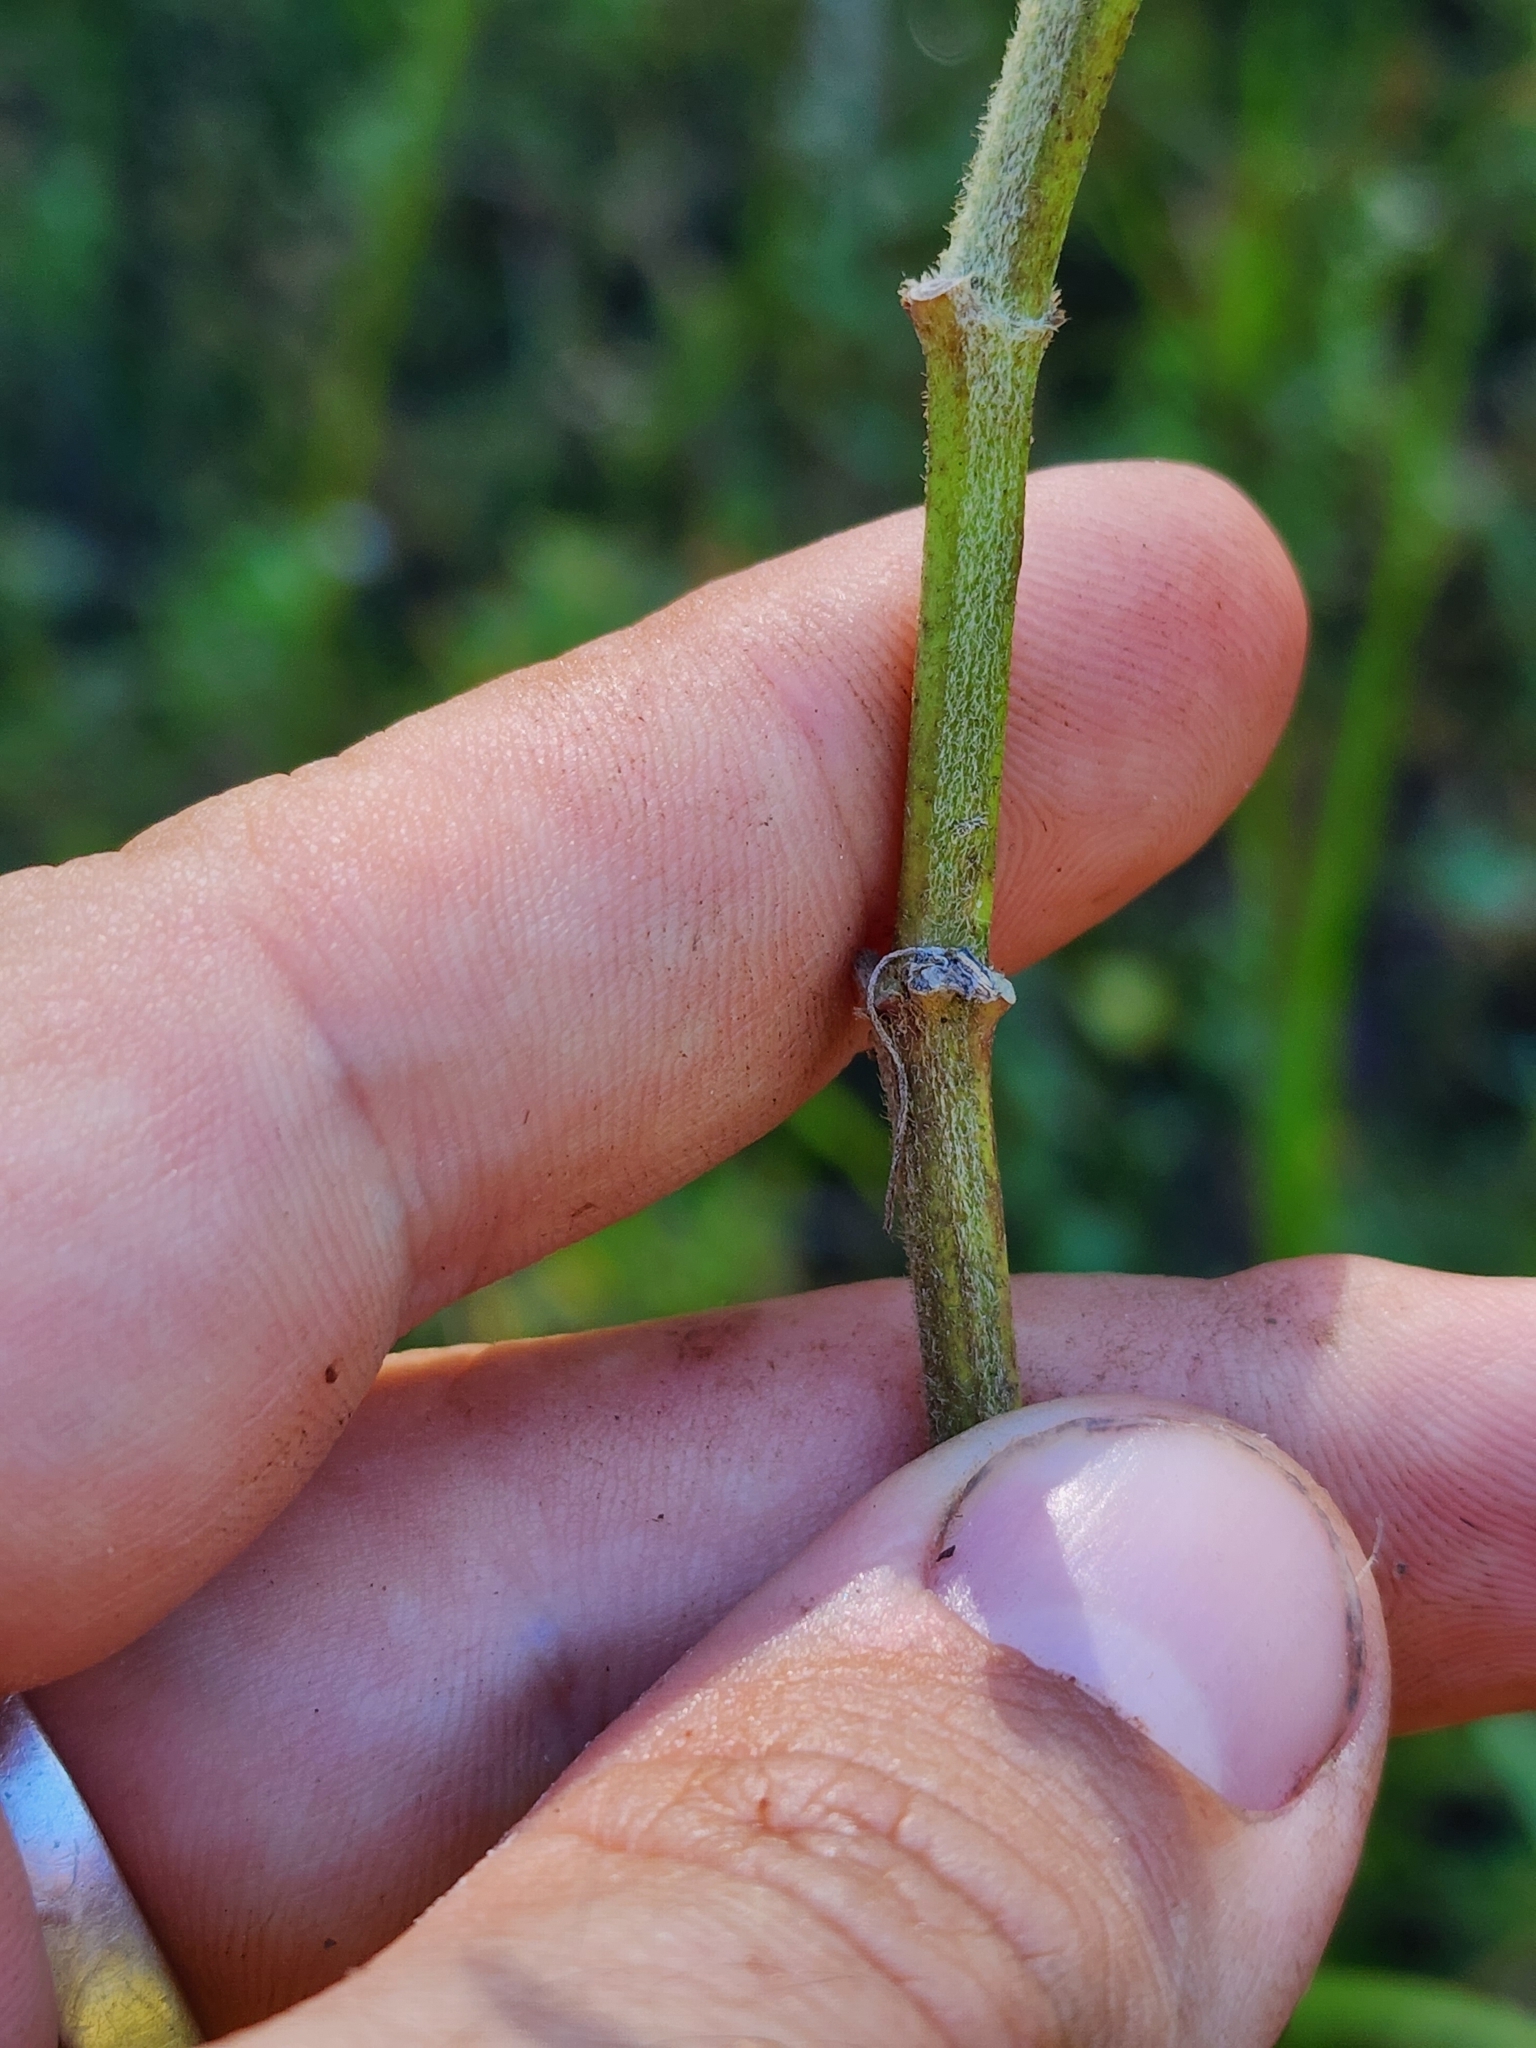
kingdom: Plantae
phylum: Tracheophyta
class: Magnoliopsida
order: Gentianales
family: Apocynaceae
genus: Asclepias
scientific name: Asclepias incarnata
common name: Swamp milkweed
